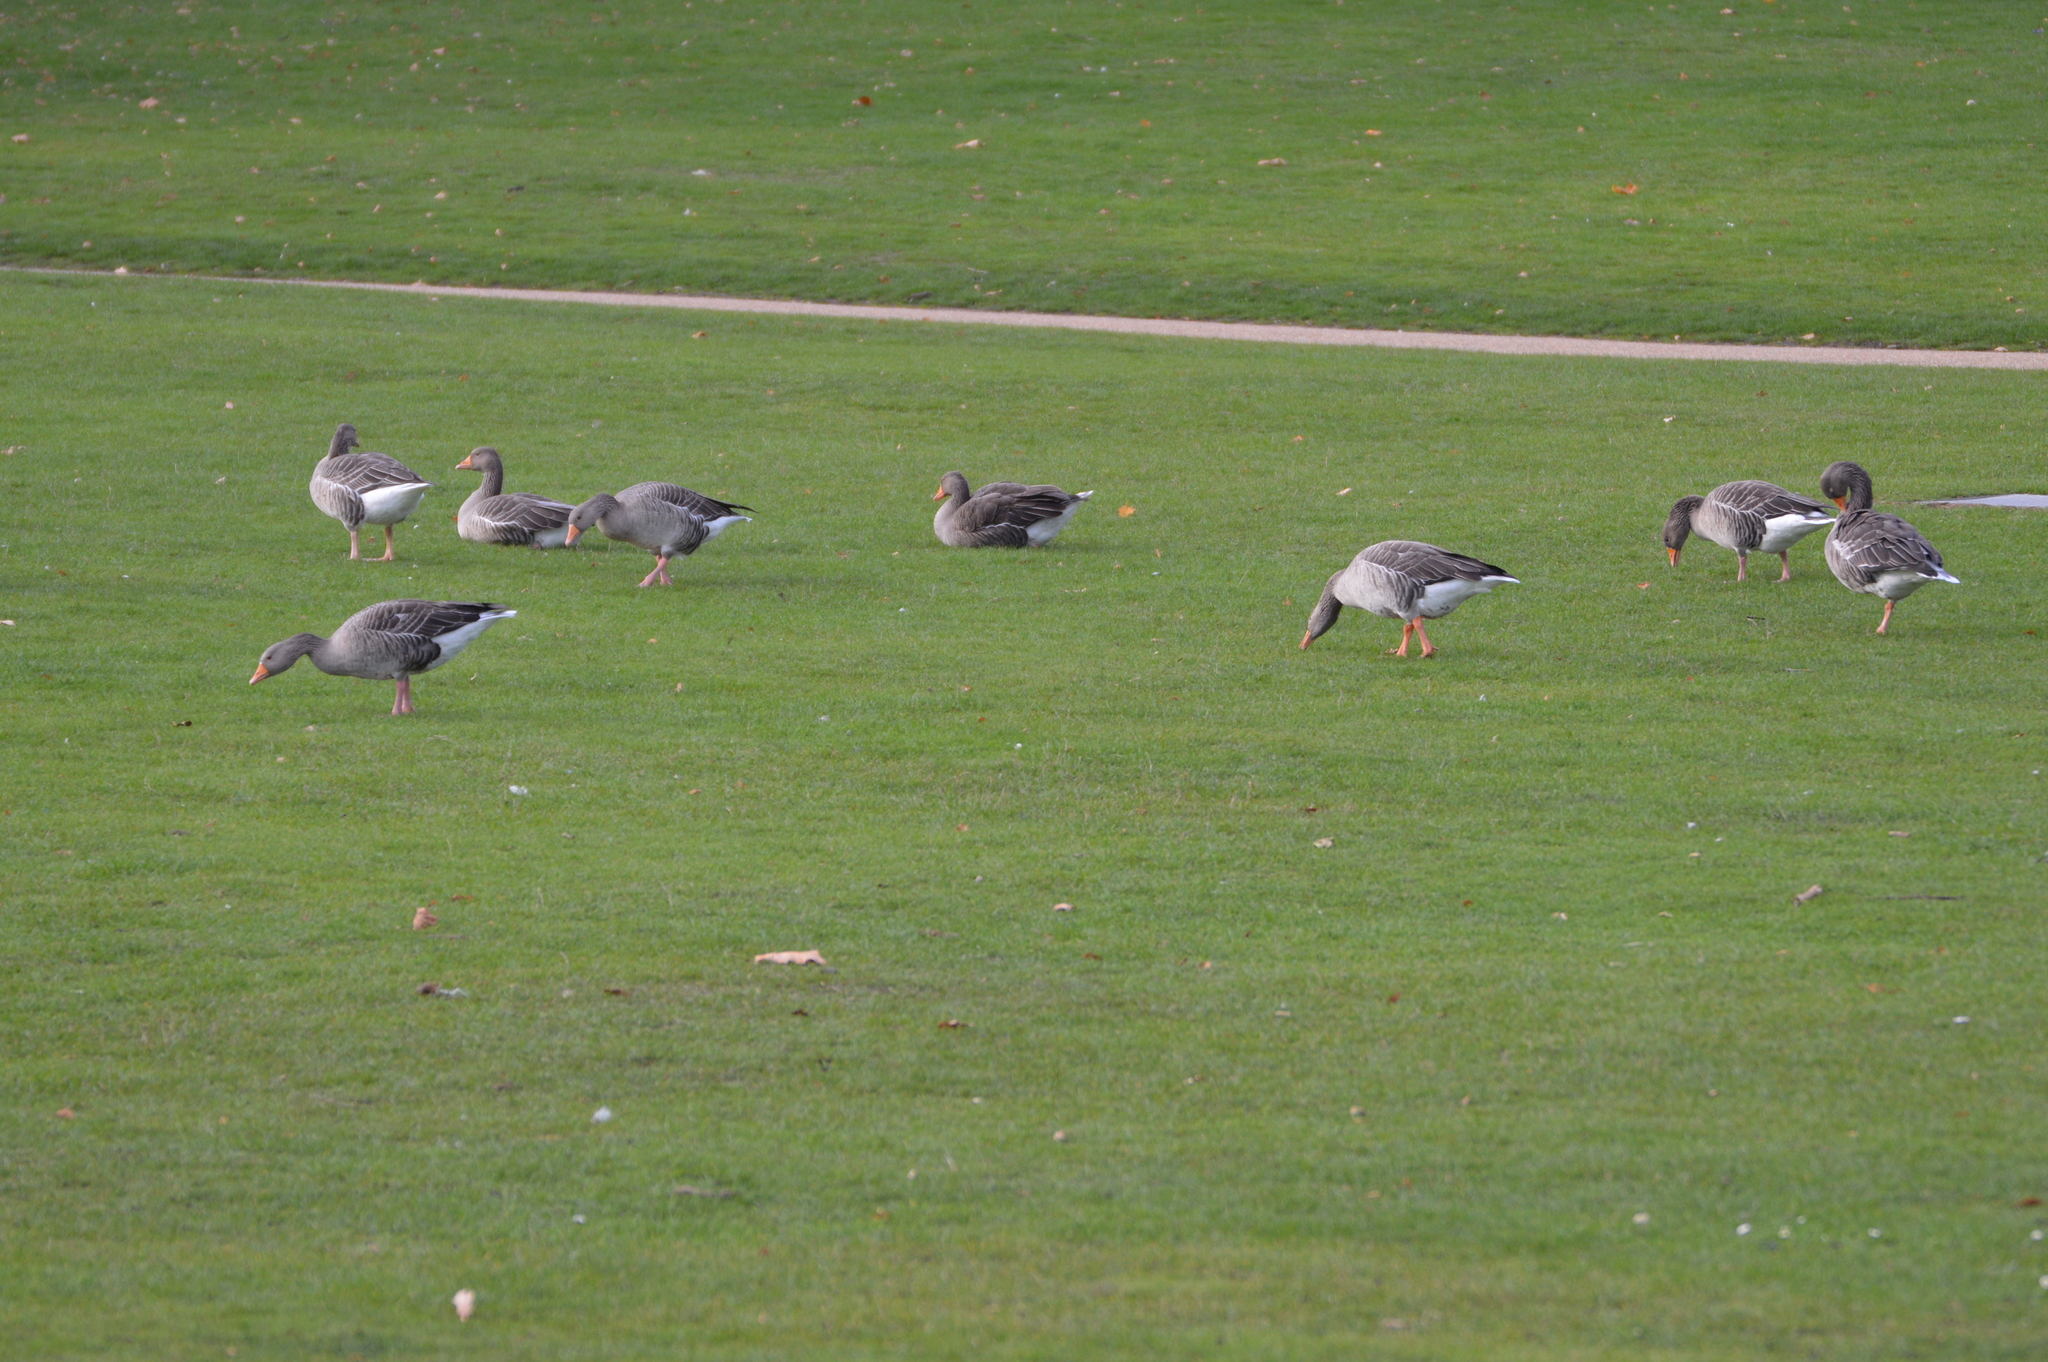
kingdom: Animalia
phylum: Chordata
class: Aves
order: Anseriformes
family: Anatidae
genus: Anser
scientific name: Anser anser
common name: Greylag goose
